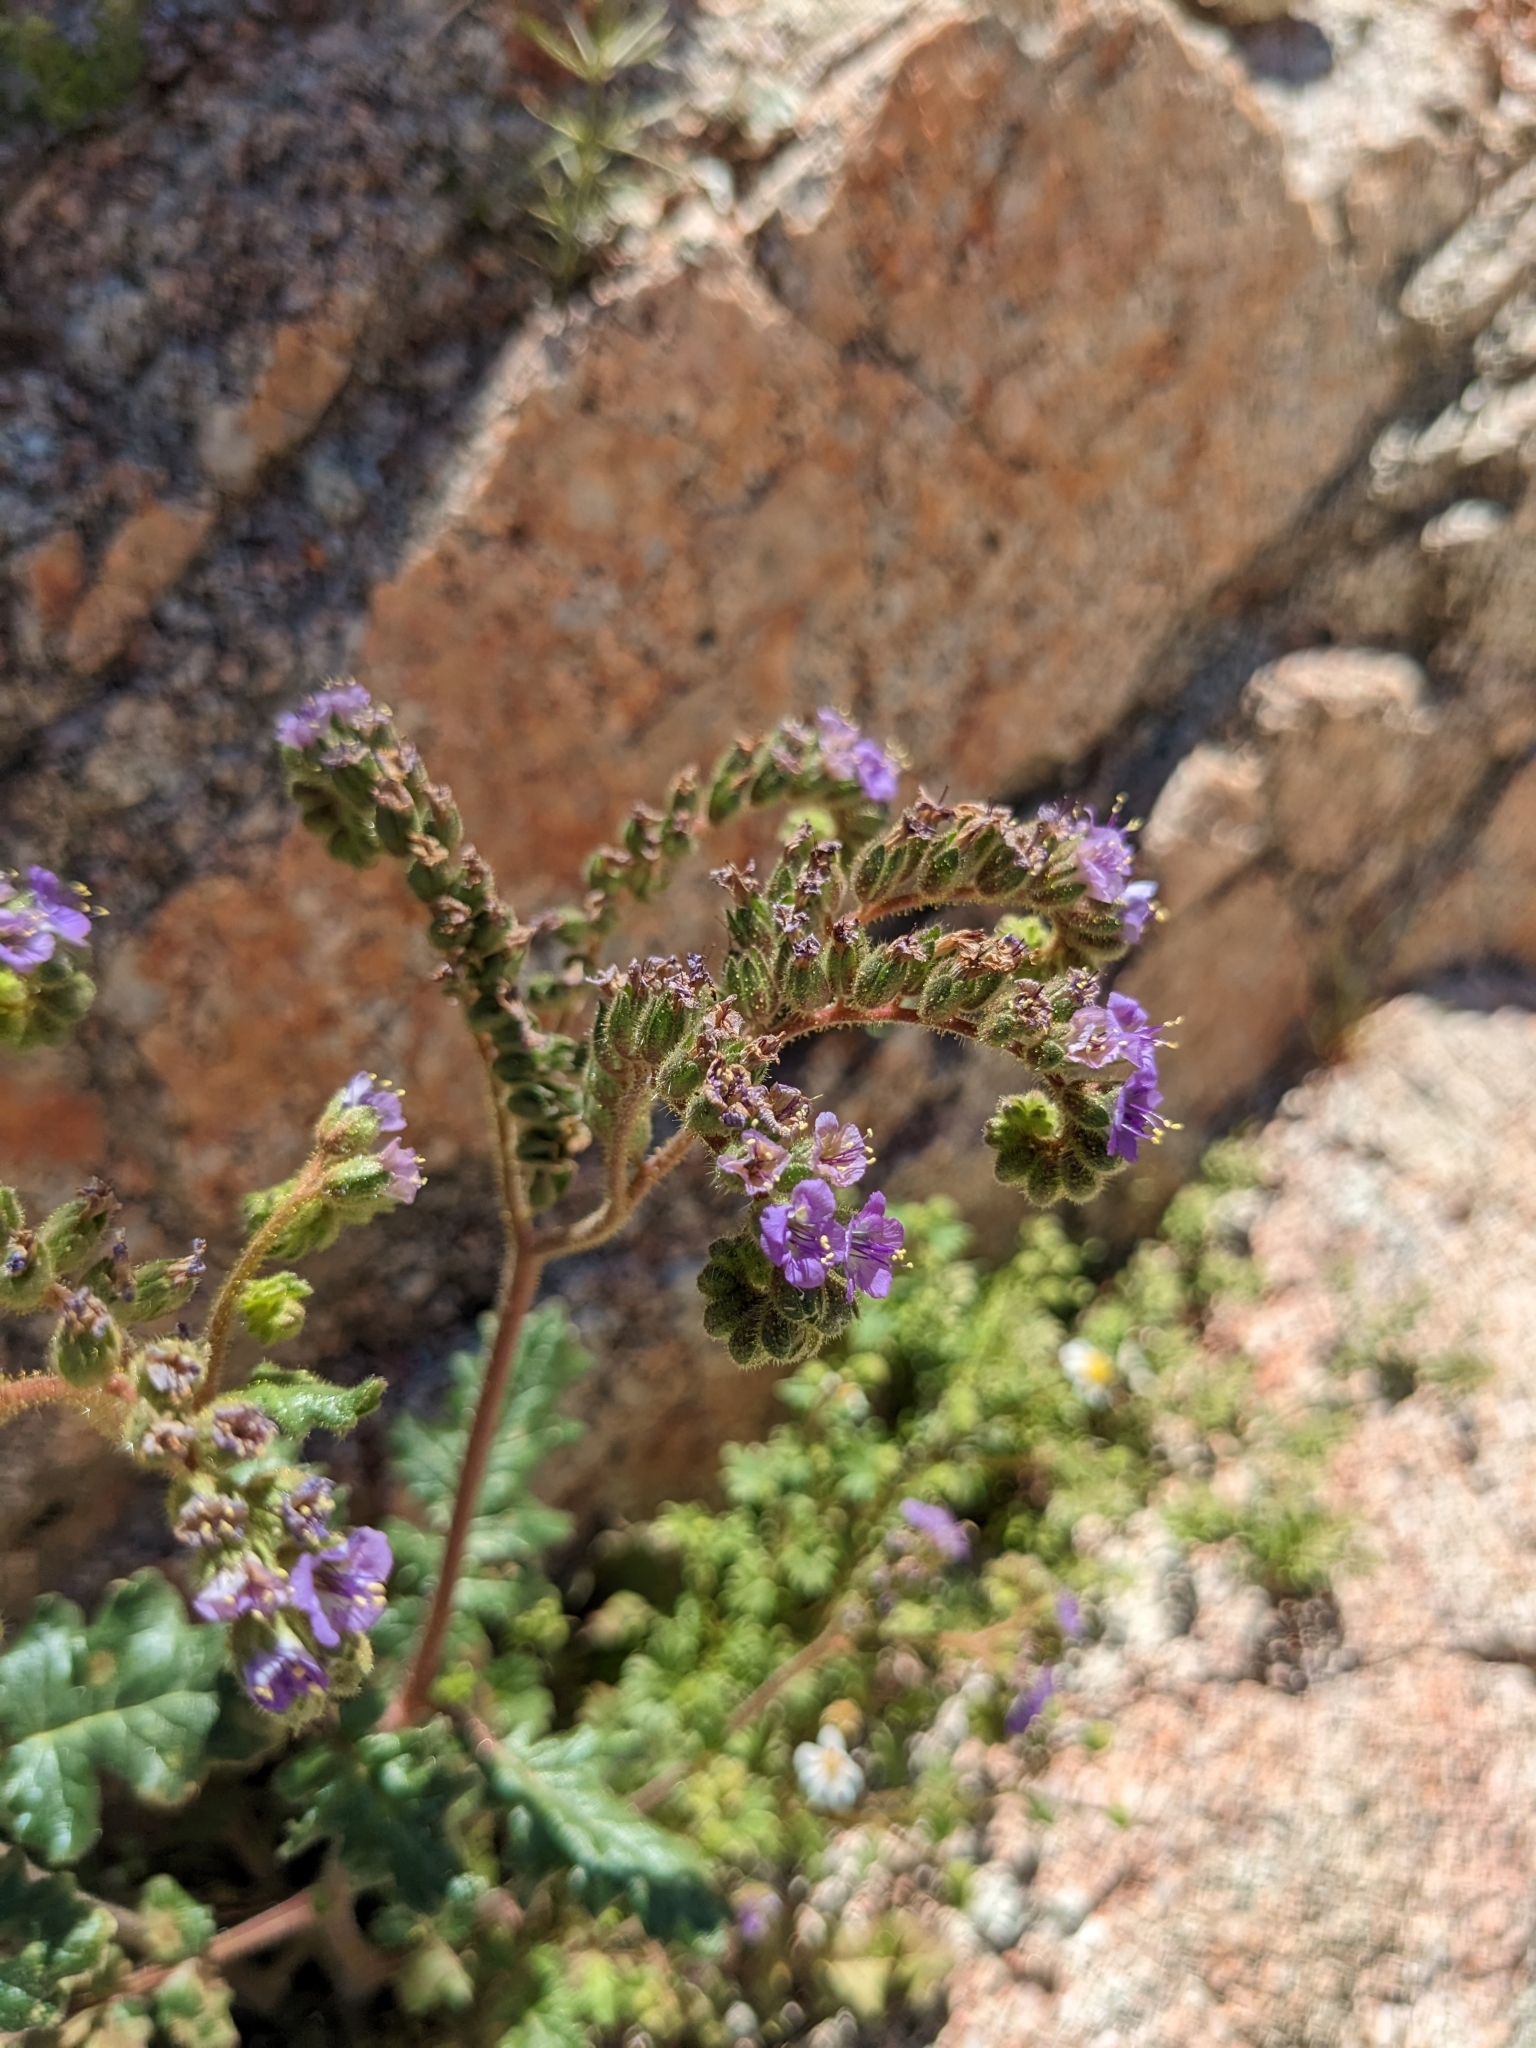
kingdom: Plantae
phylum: Tracheophyta
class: Magnoliopsida
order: Boraginales
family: Hydrophyllaceae
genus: Phacelia
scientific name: Phacelia crenulata
